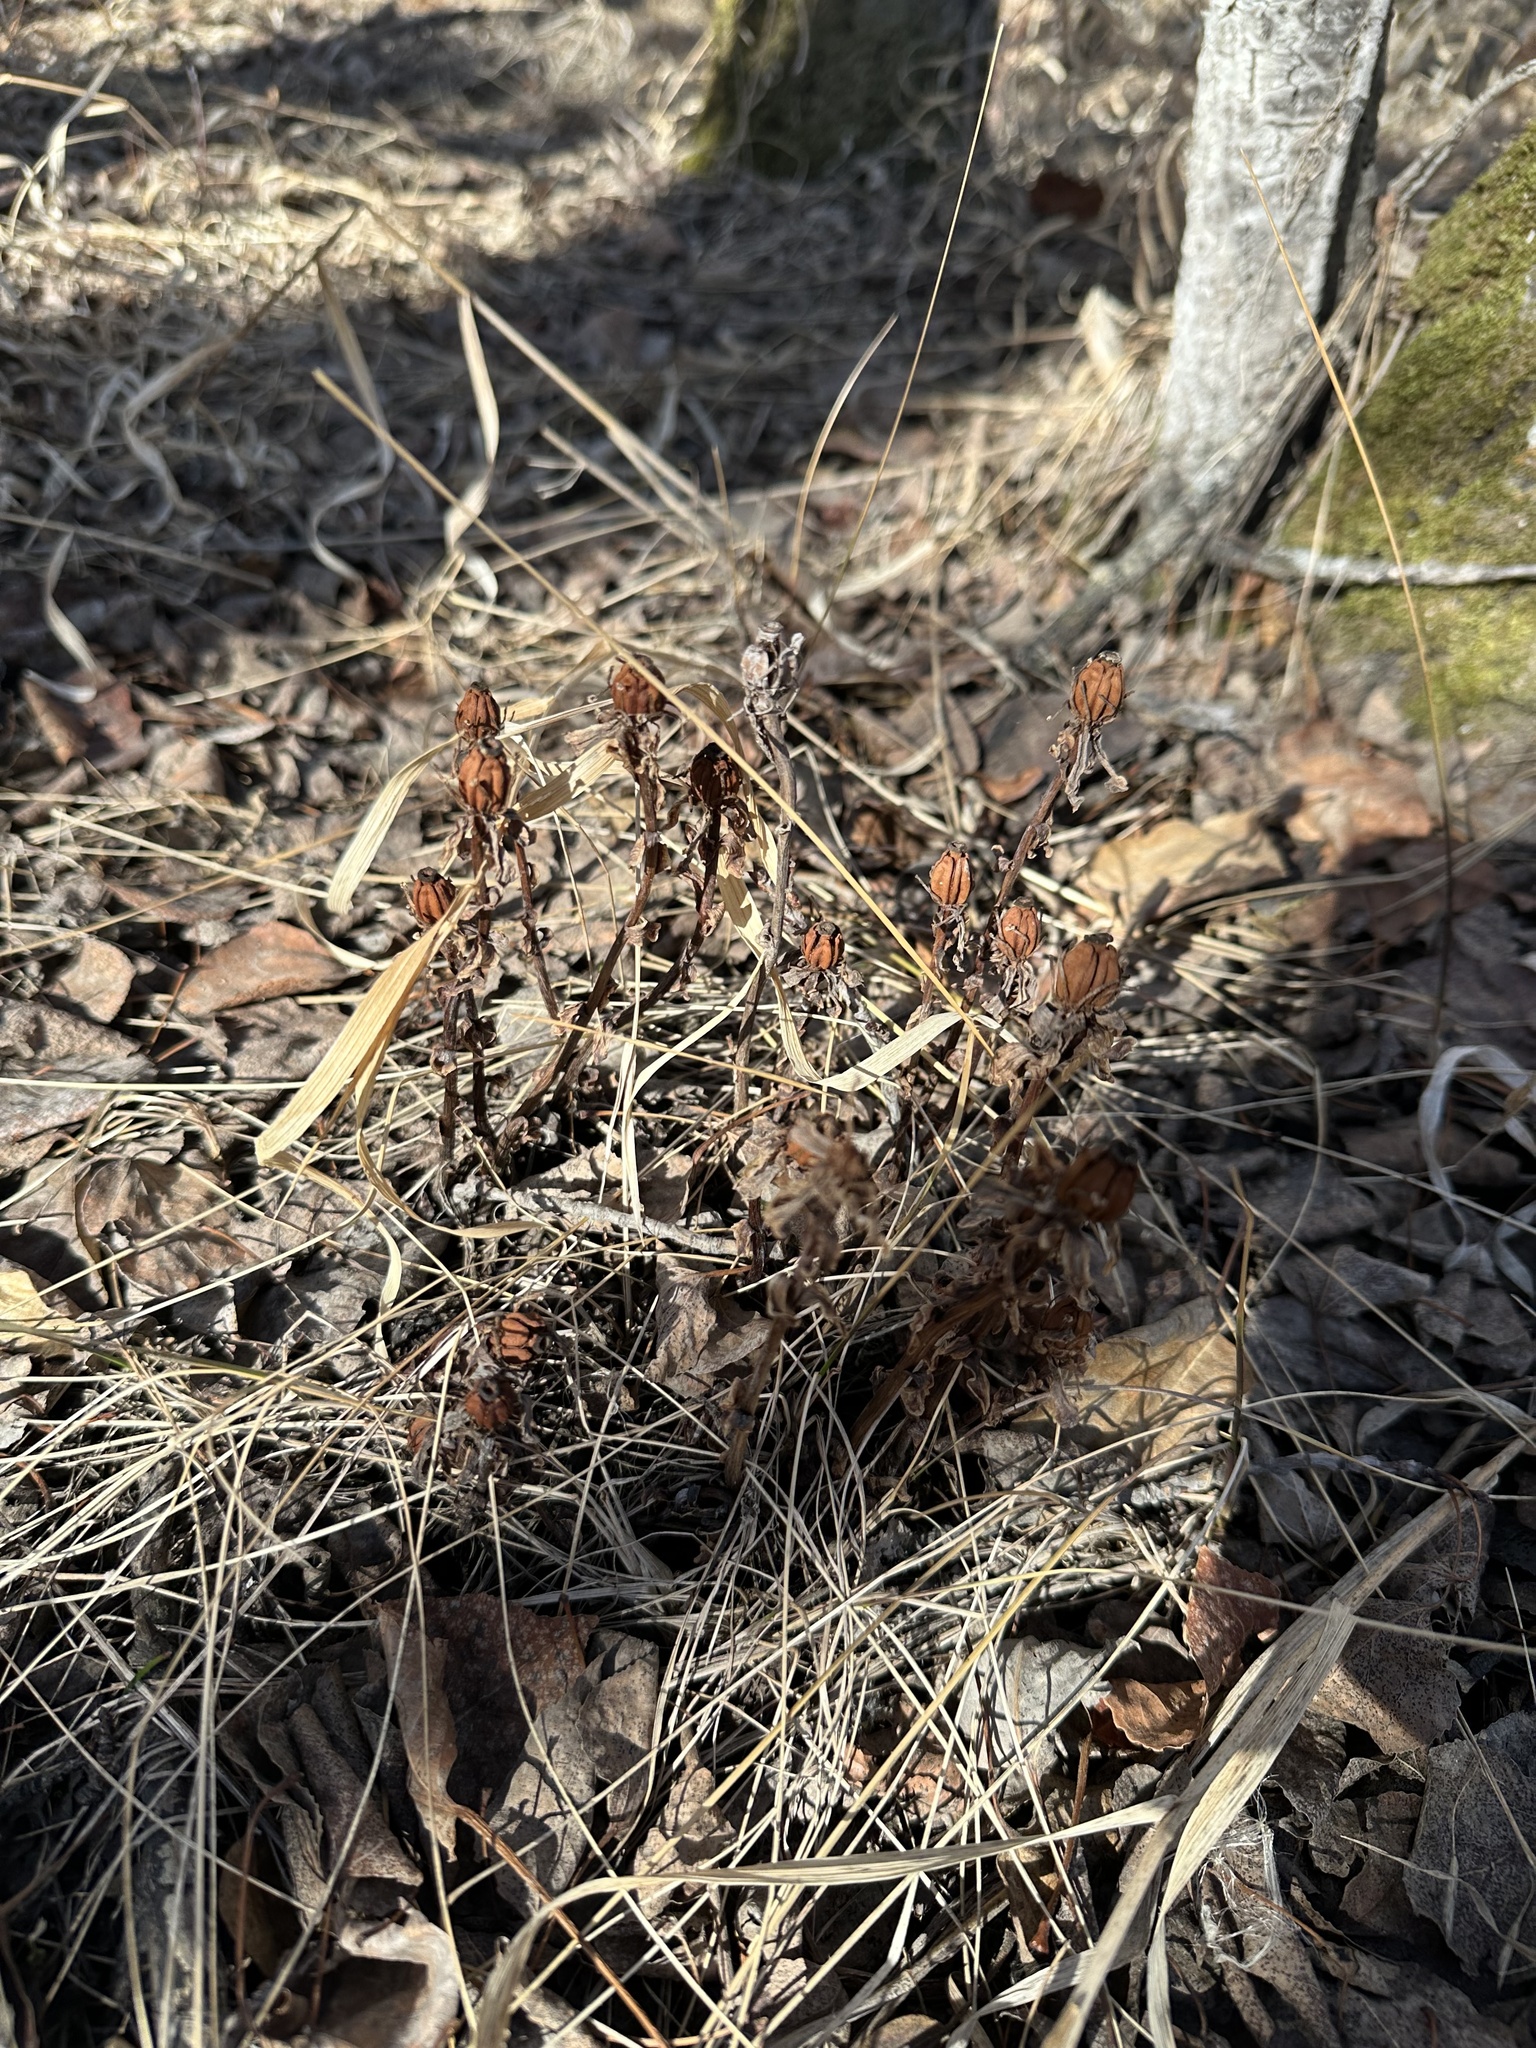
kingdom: Plantae
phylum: Tracheophyta
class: Magnoliopsida
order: Ericales
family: Ericaceae
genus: Monotropa
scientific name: Monotropa uniflora
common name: Convulsion root
